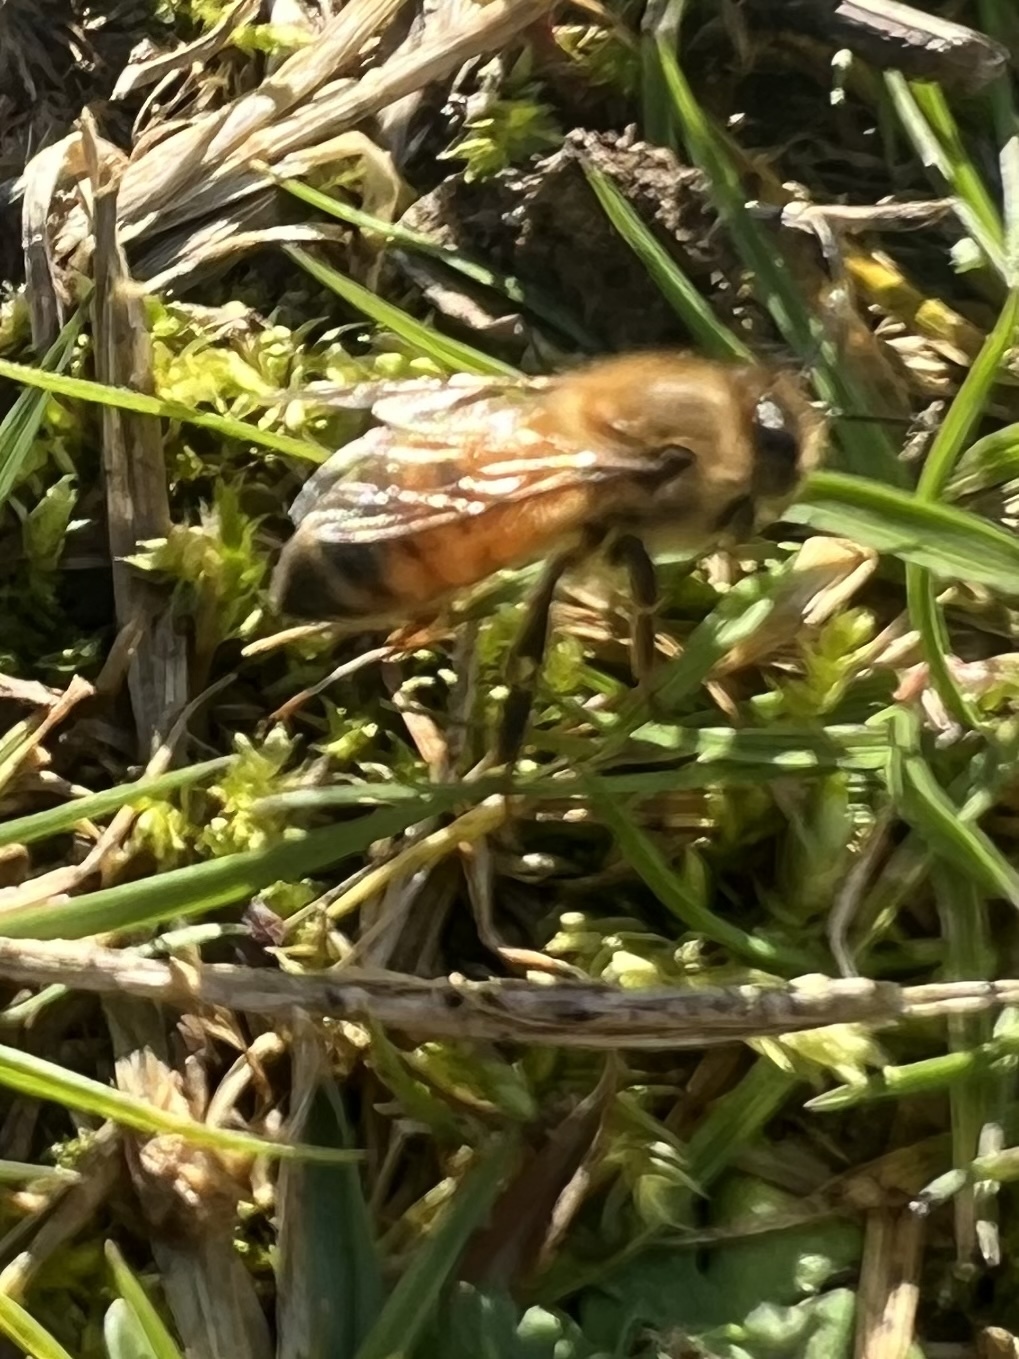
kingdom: Animalia
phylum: Arthropoda
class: Insecta
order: Hymenoptera
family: Apidae
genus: Apis
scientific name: Apis mellifera
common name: Honey bee
